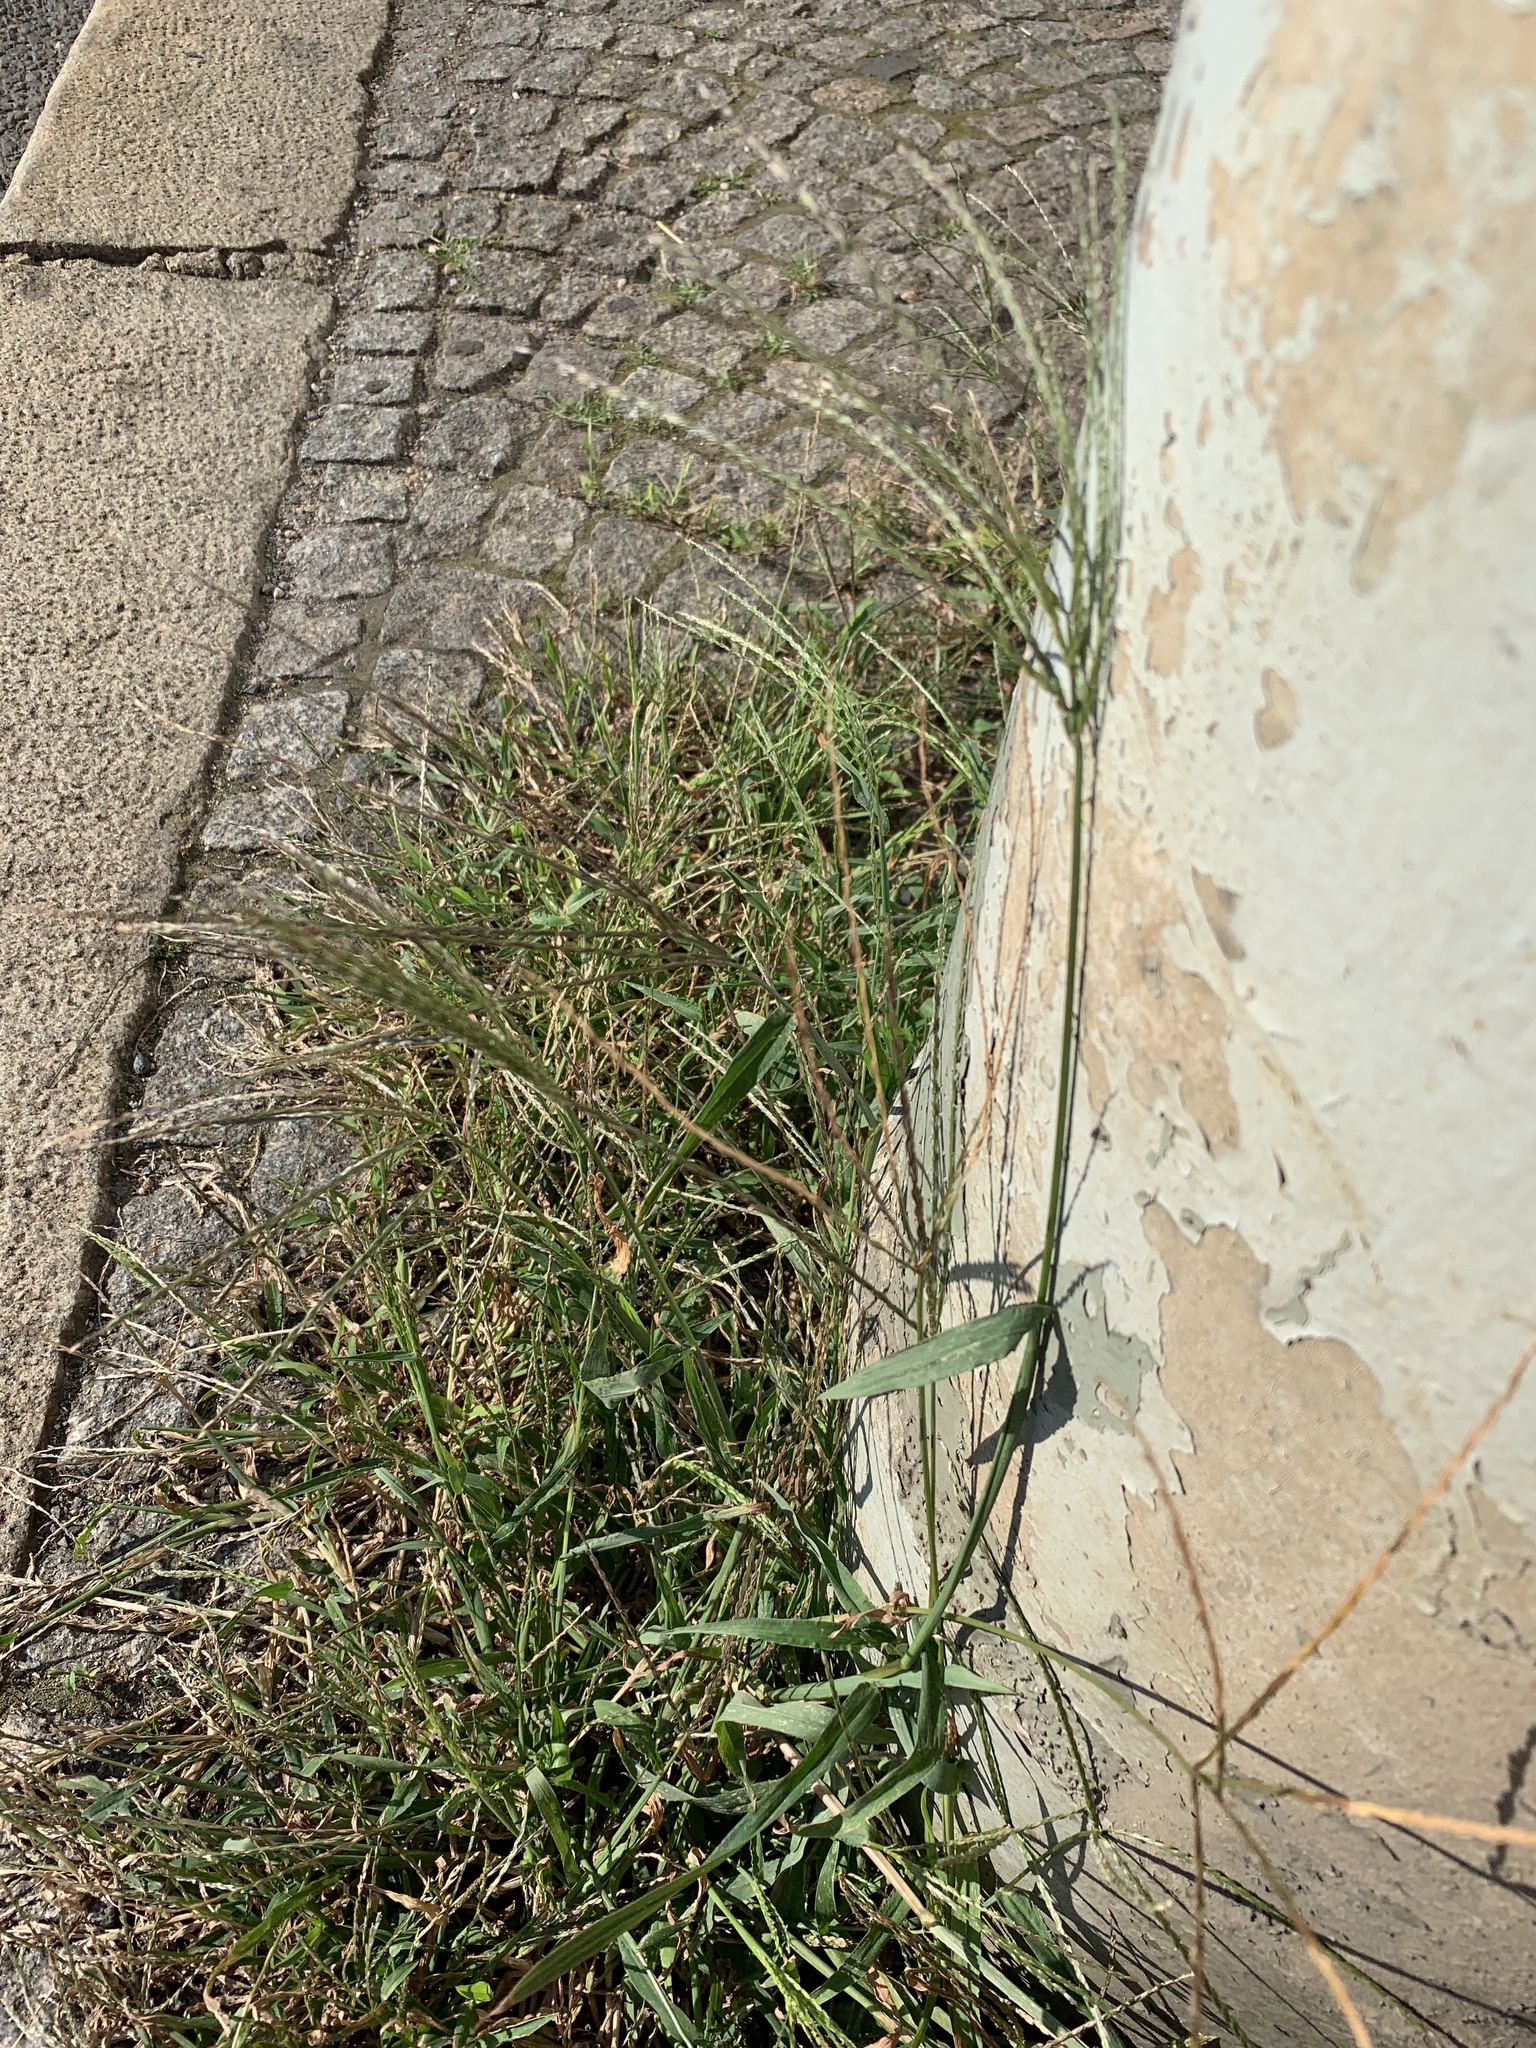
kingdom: Plantae
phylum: Tracheophyta
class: Liliopsida
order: Poales
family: Poaceae
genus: Digitaria
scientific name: Digitaria sanguinalis
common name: Hairy crabgrass
